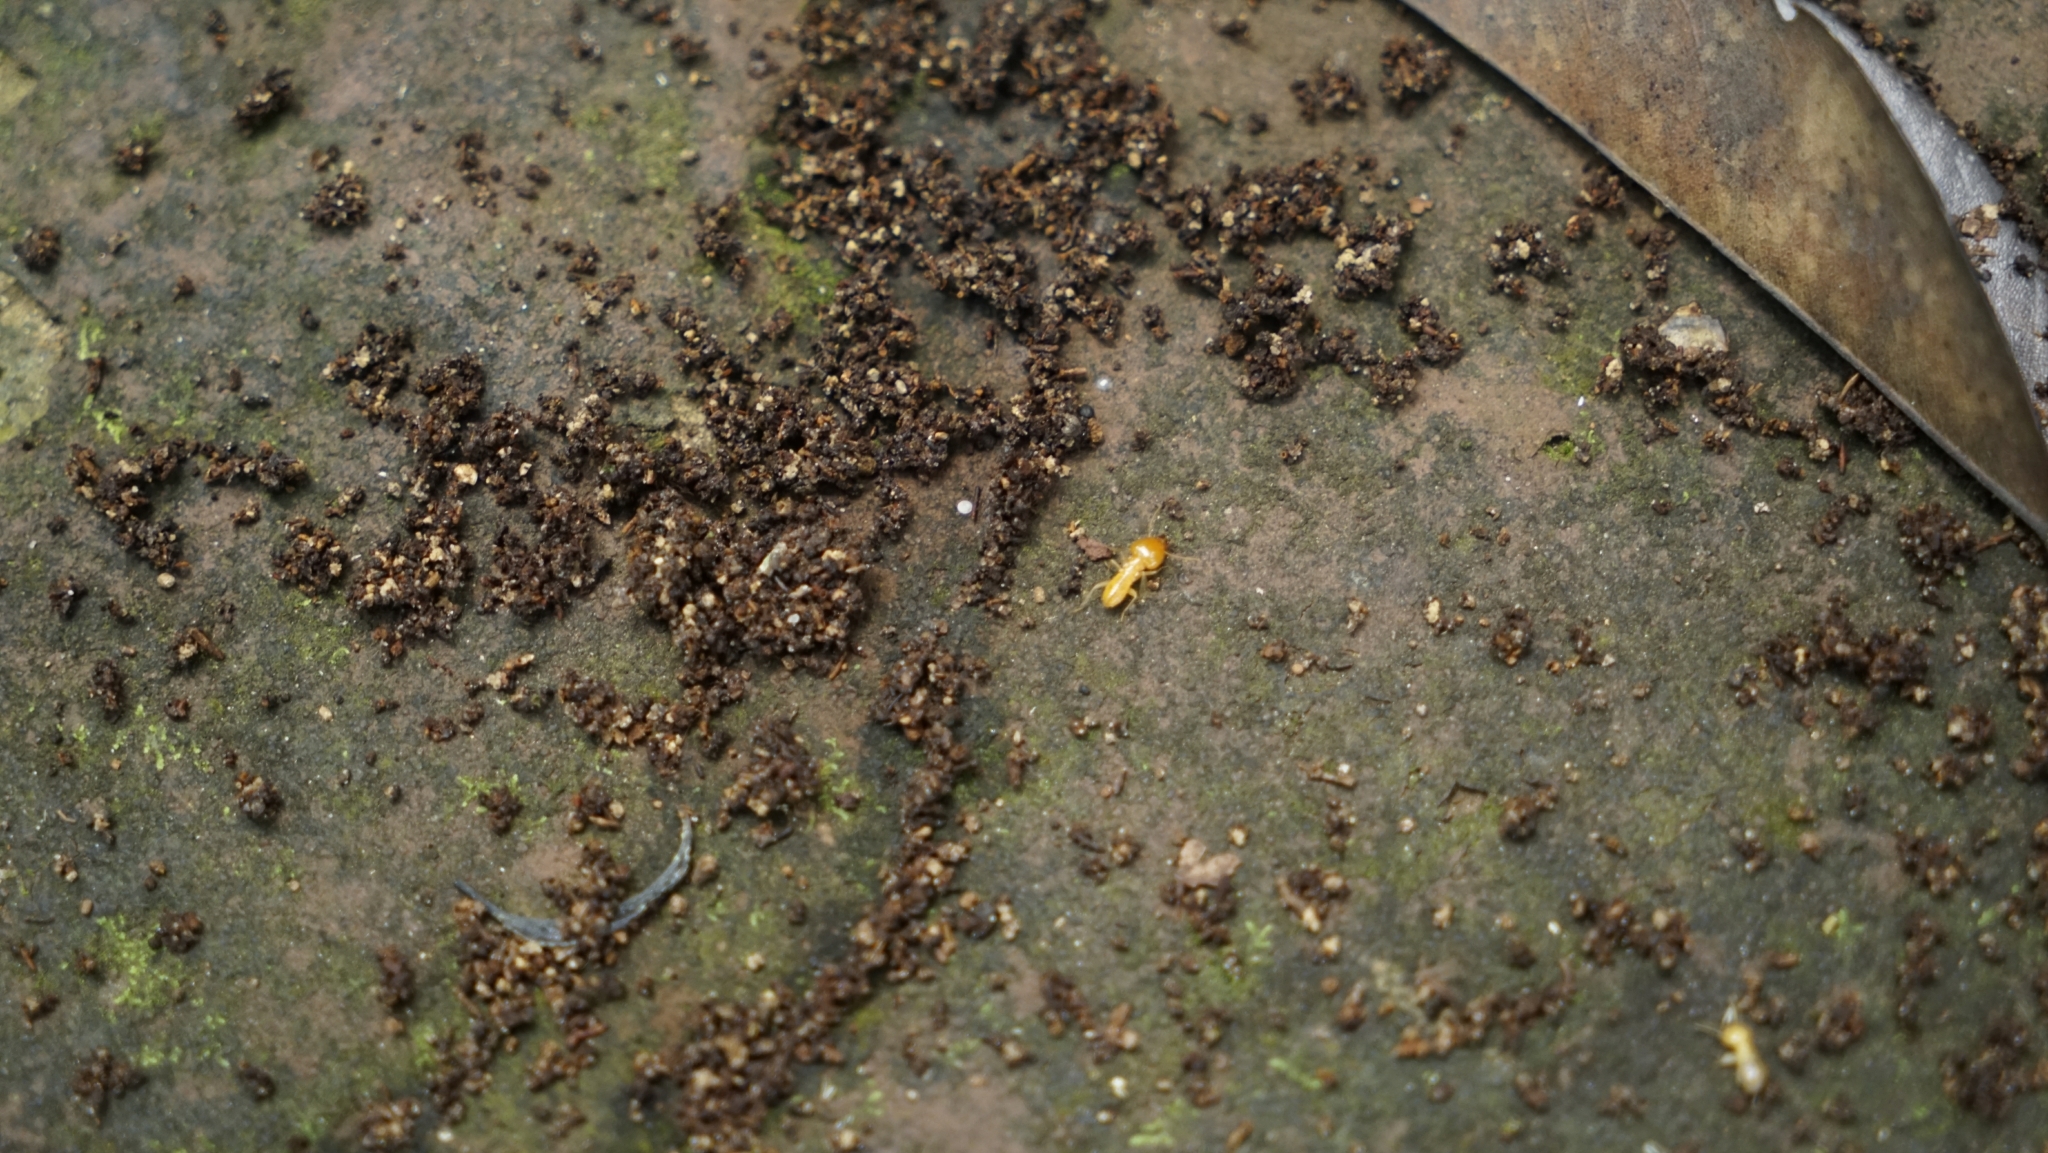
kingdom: Animalia
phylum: Arthropoda
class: Insecta
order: Blattodea
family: Rhinotermitidae
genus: Schedorhinotermes
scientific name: Schedorhinotermes
